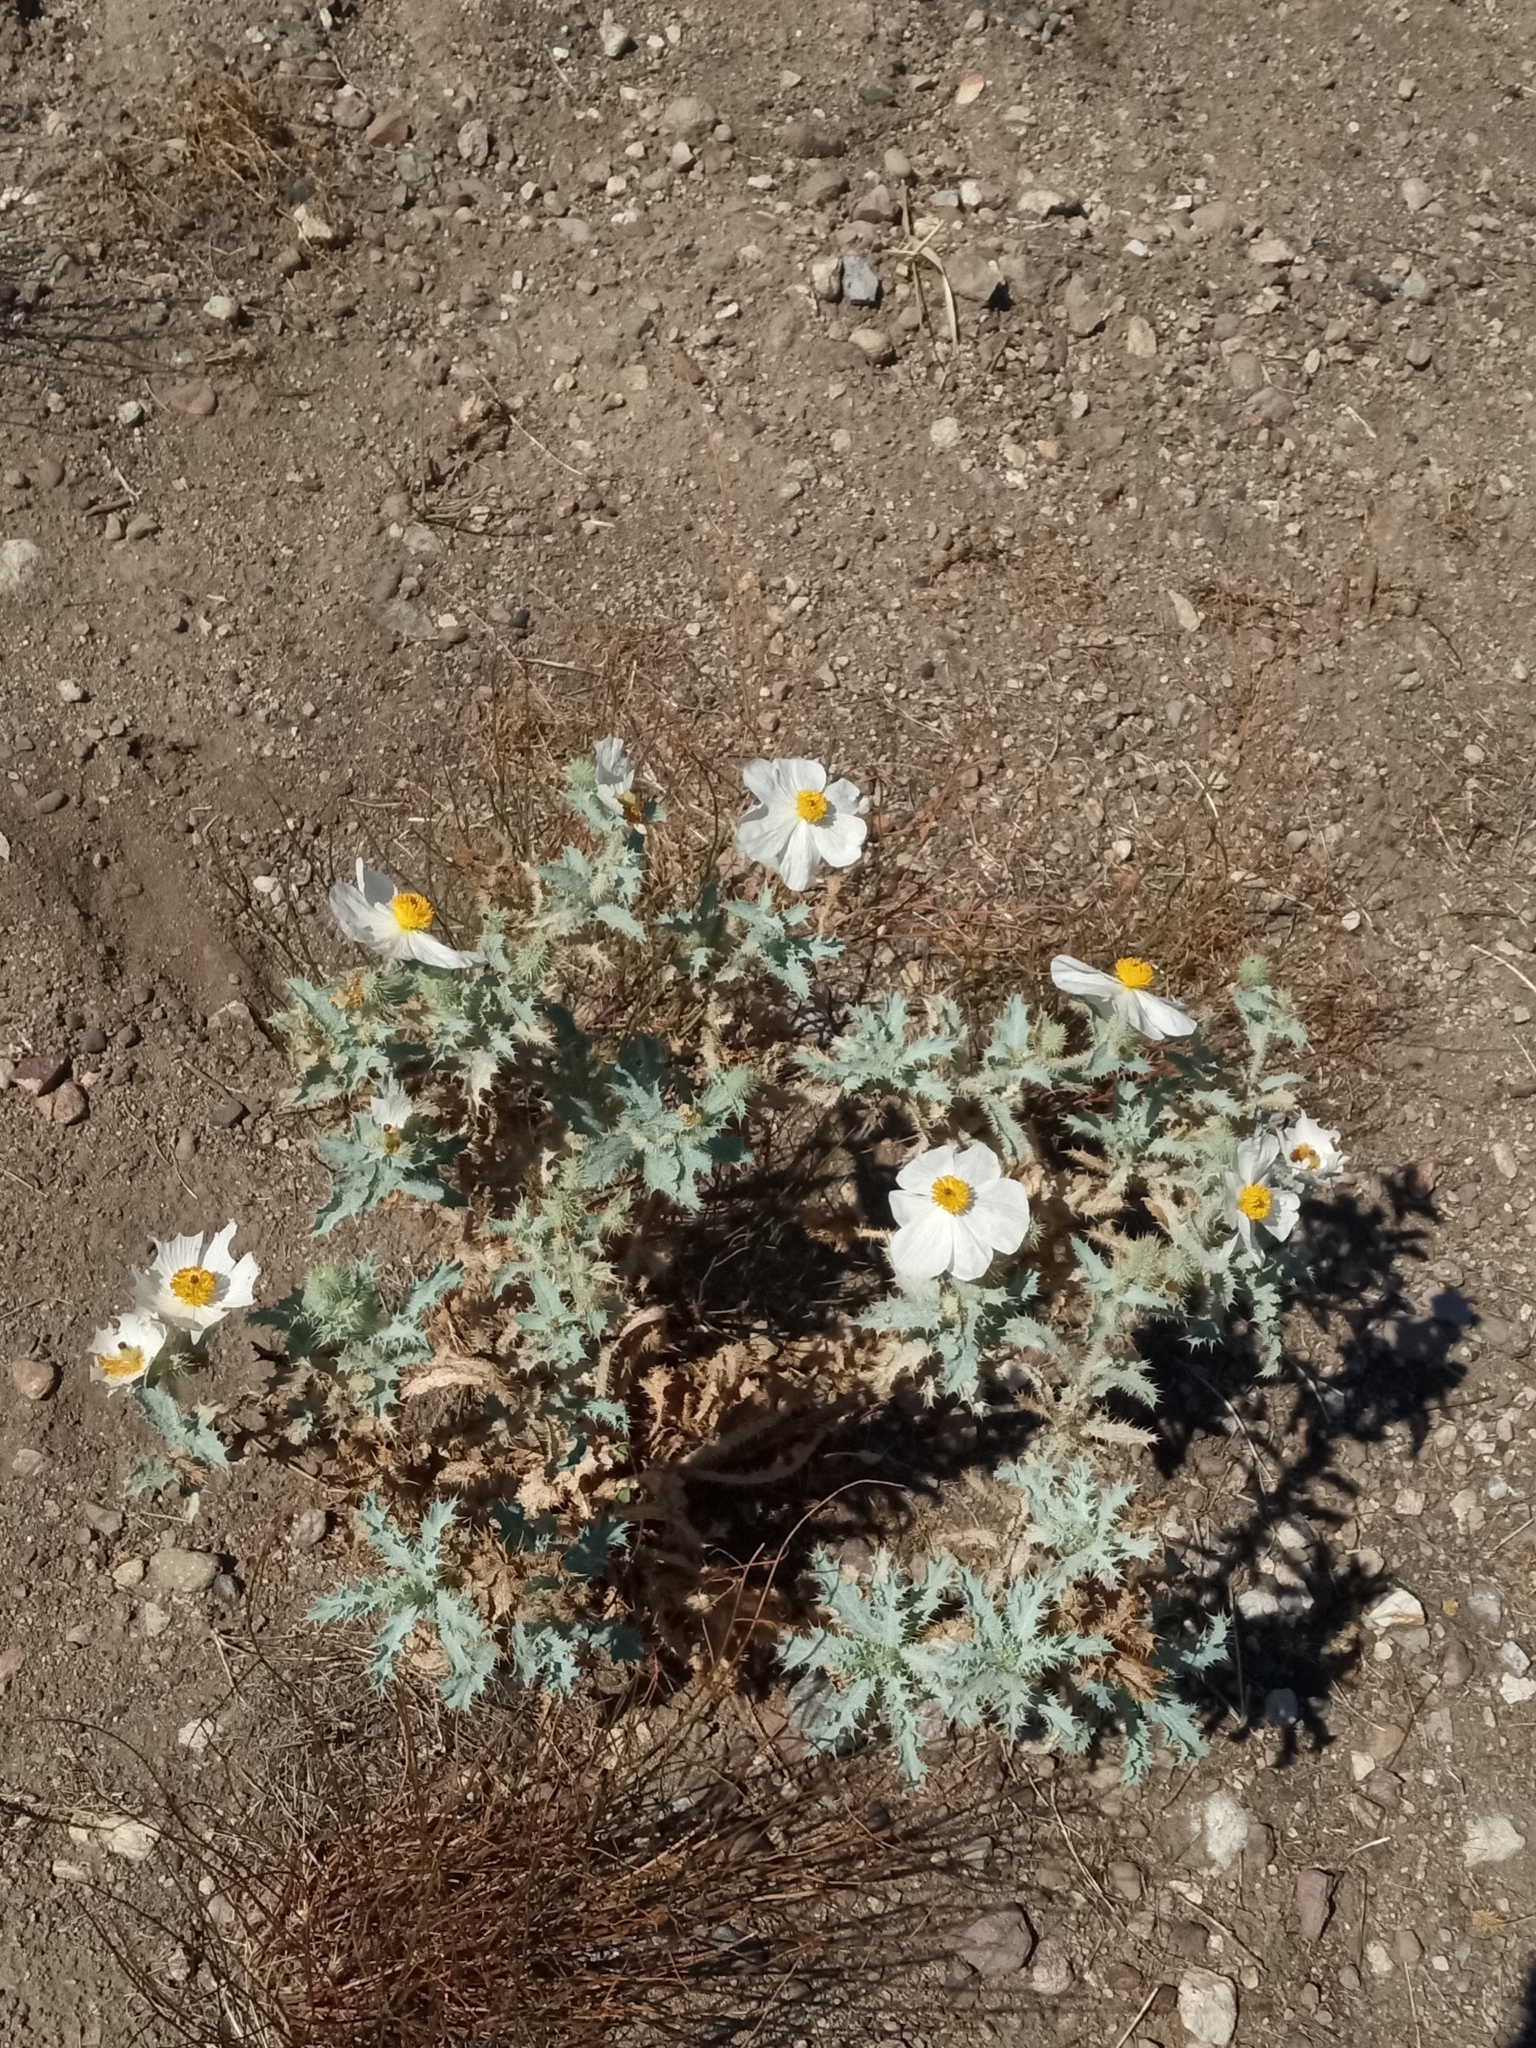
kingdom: Plantae
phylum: Tracheophyta
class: Magnoliopsida
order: Ranunculales
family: Papaveraceae
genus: Argemone
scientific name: Argemone munita
